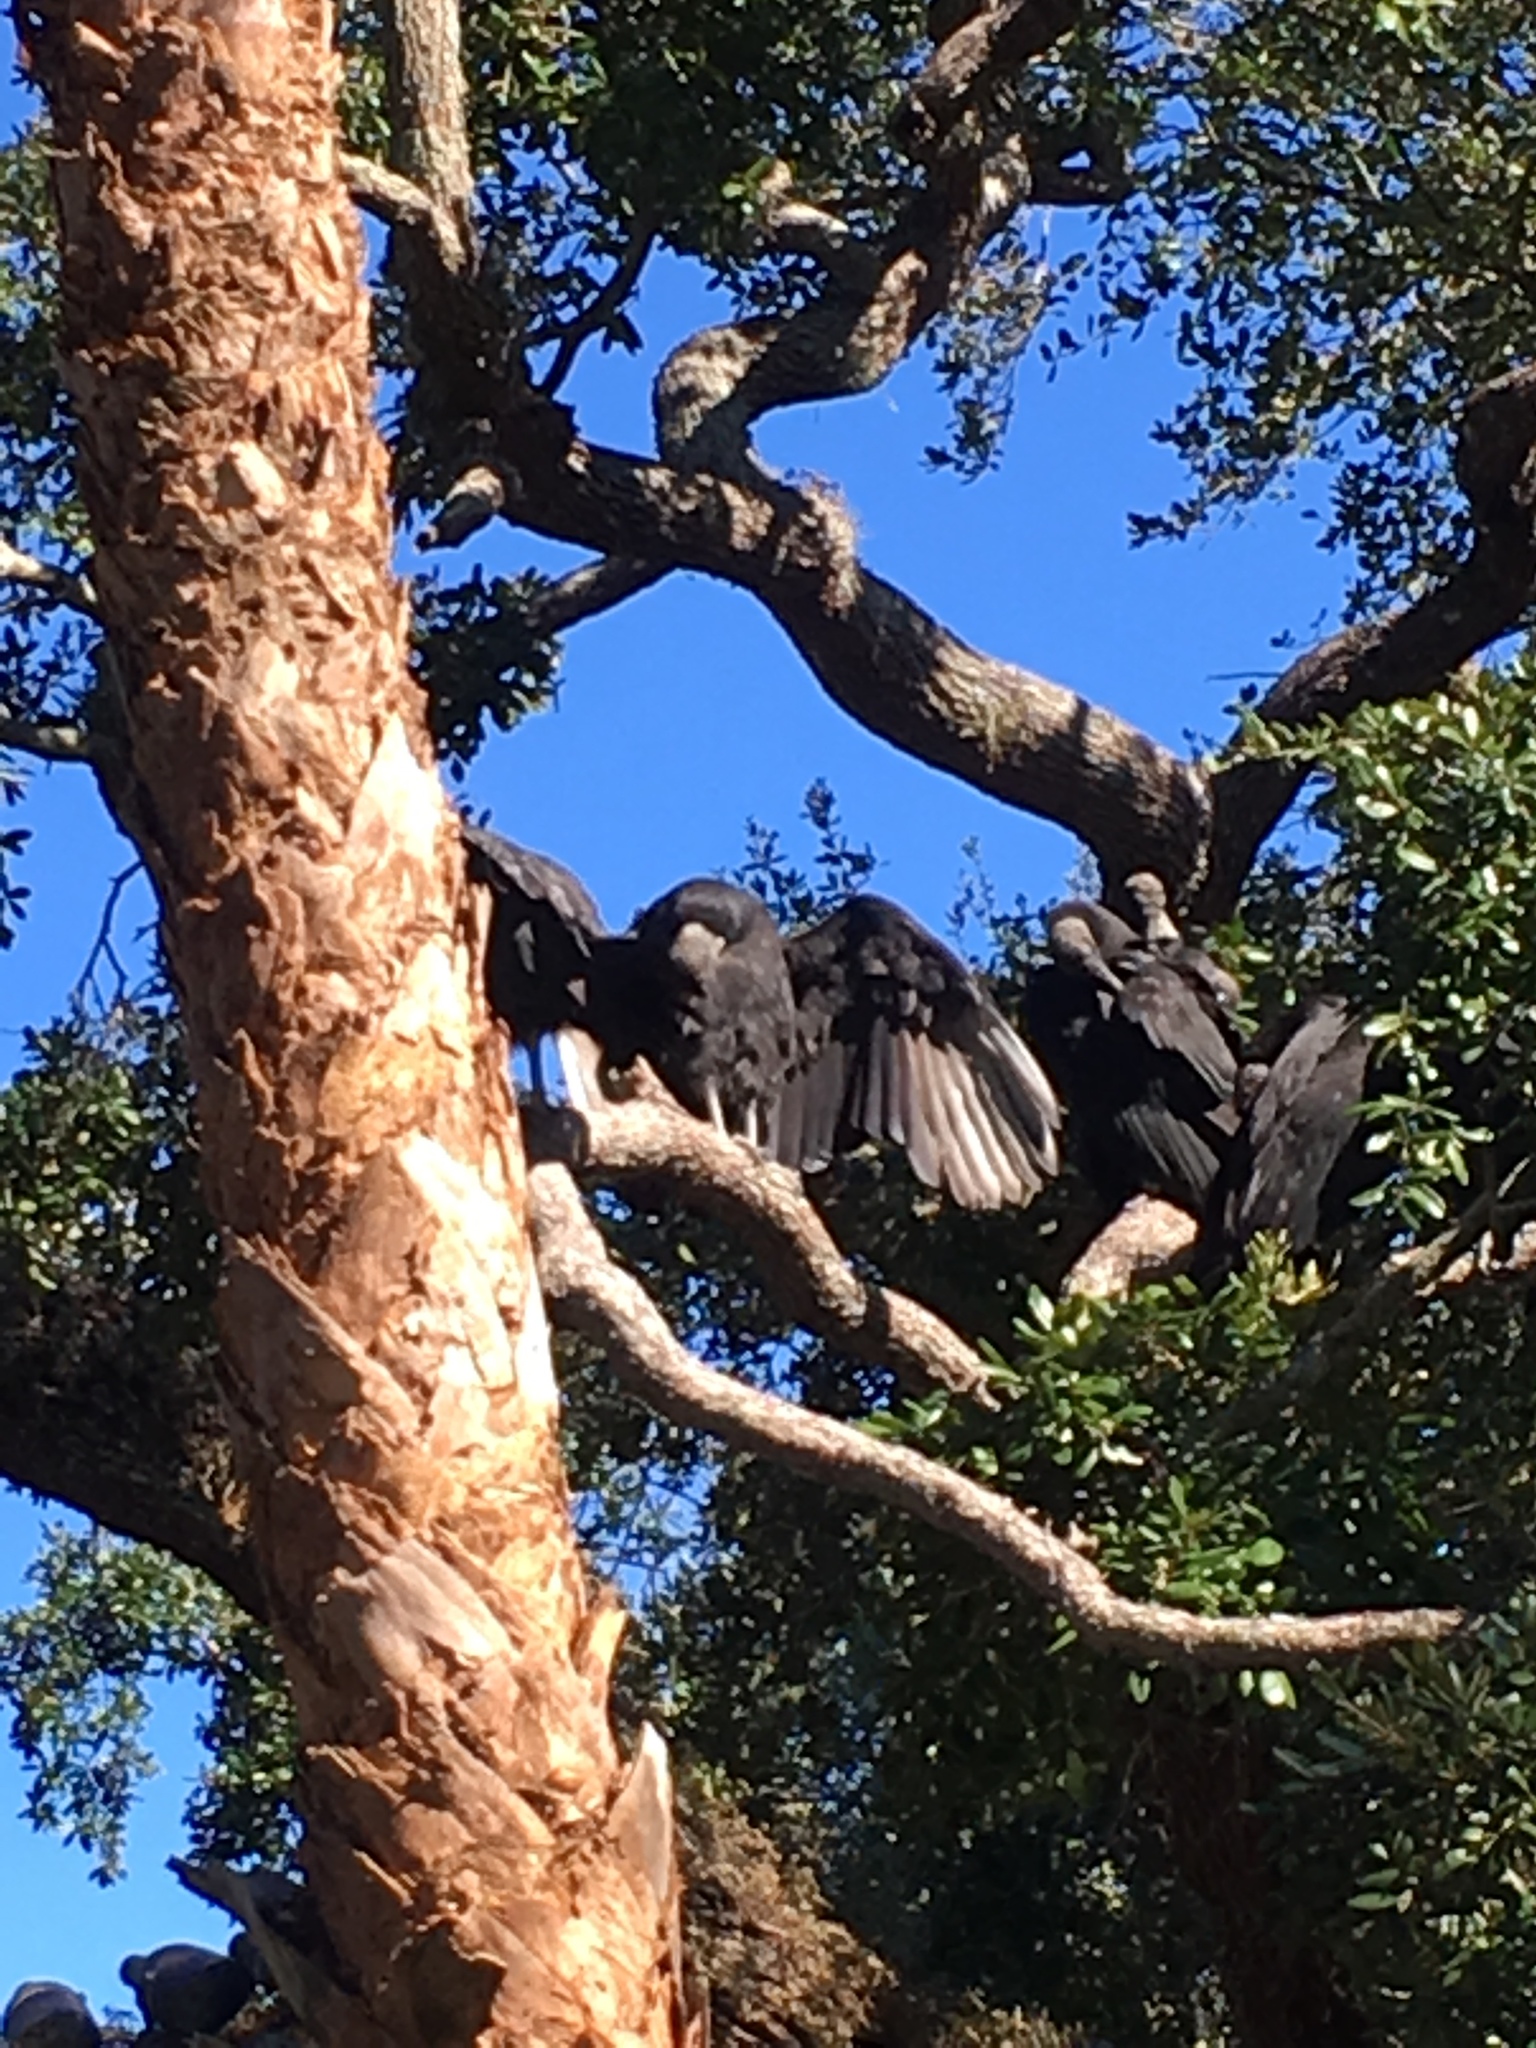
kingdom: Animalia
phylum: Chordata
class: Aves
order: Accipitriformes
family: Cathartidae
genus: Coragyps
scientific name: Coragyps atratus
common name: Black vulture
